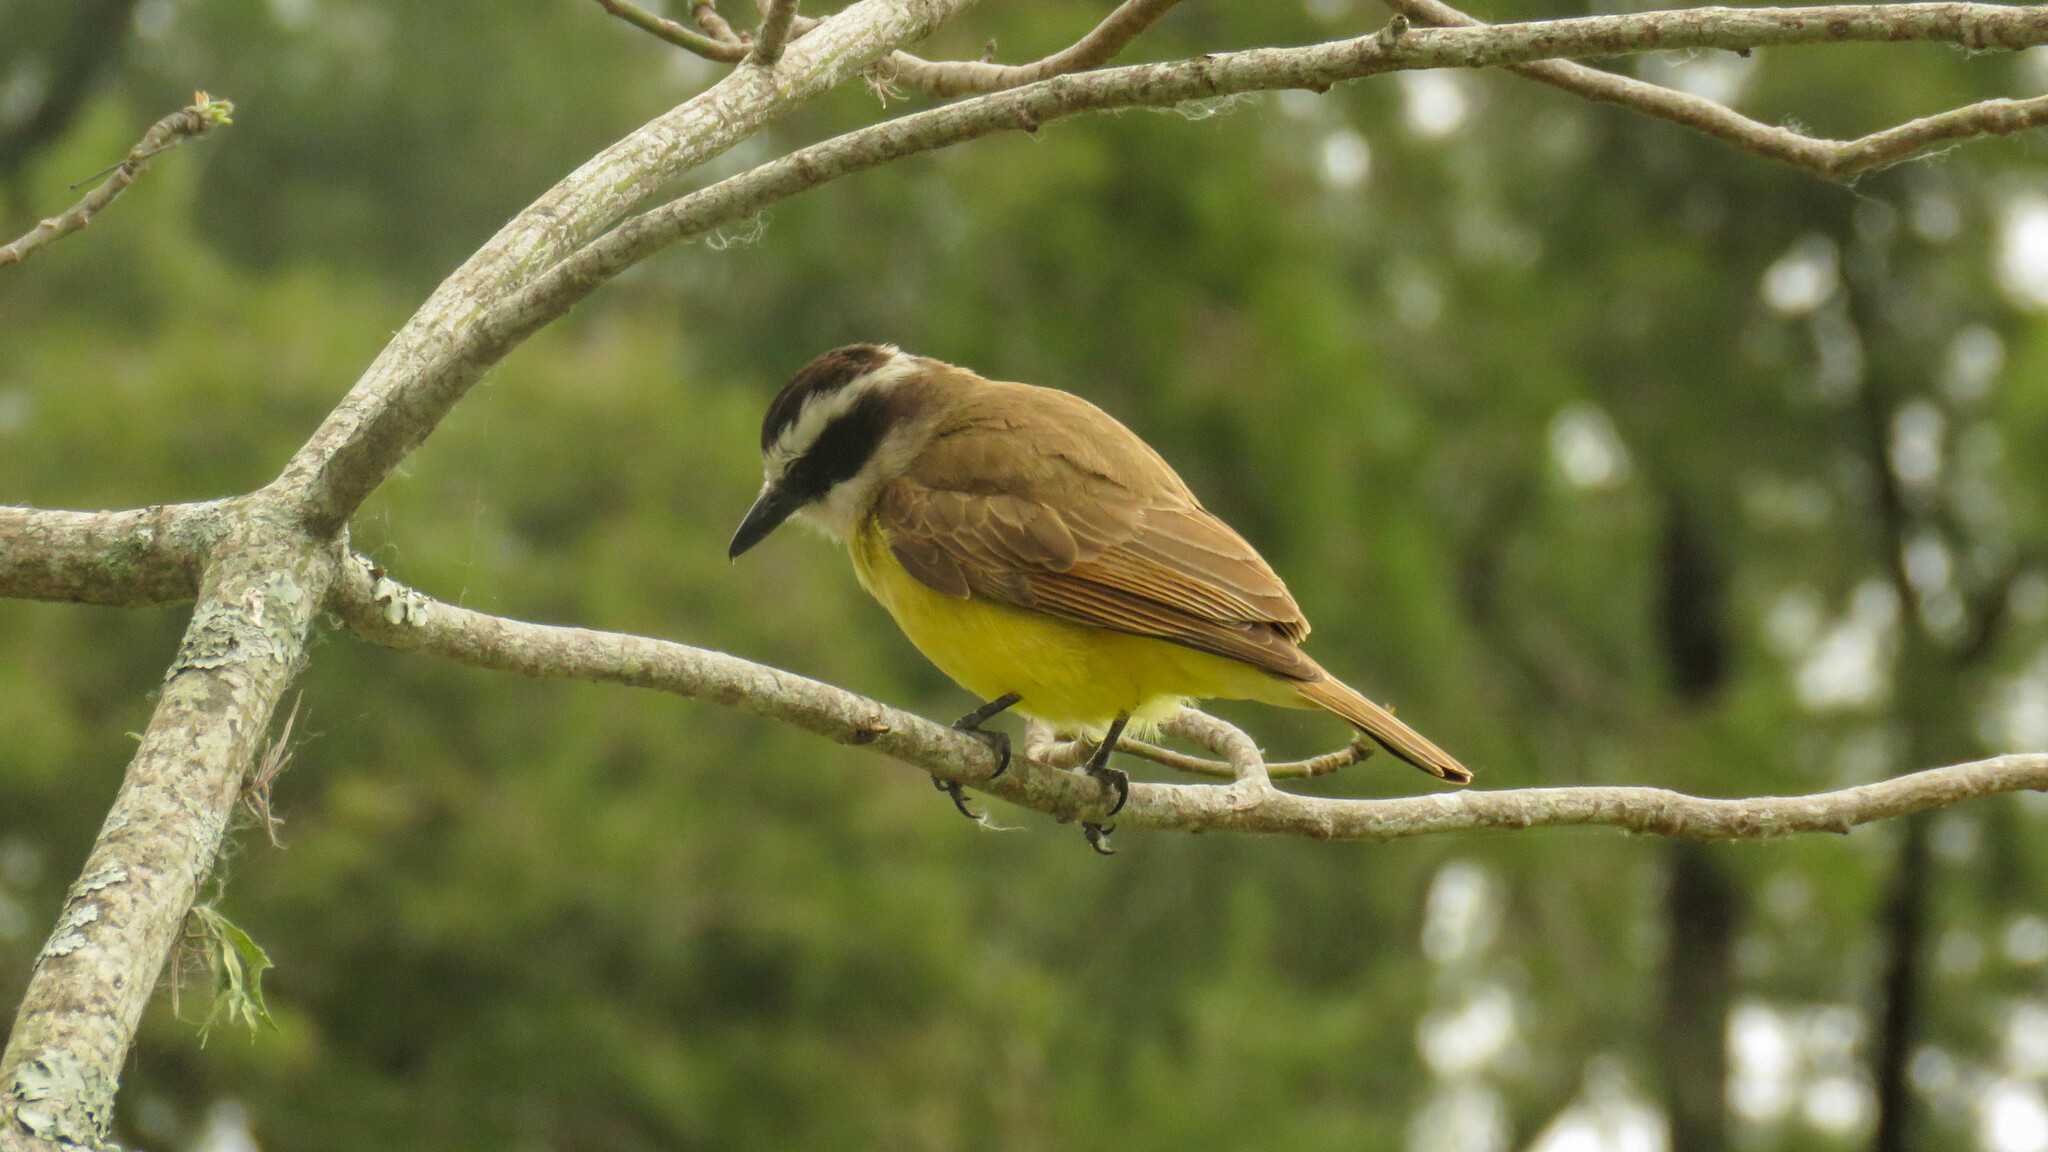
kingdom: Animalia
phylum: Chordata
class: Aves
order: Passeriformes
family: Tyrannidae
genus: Pitangus
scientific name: Pitangus sulphuratus
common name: Great kiskadee
